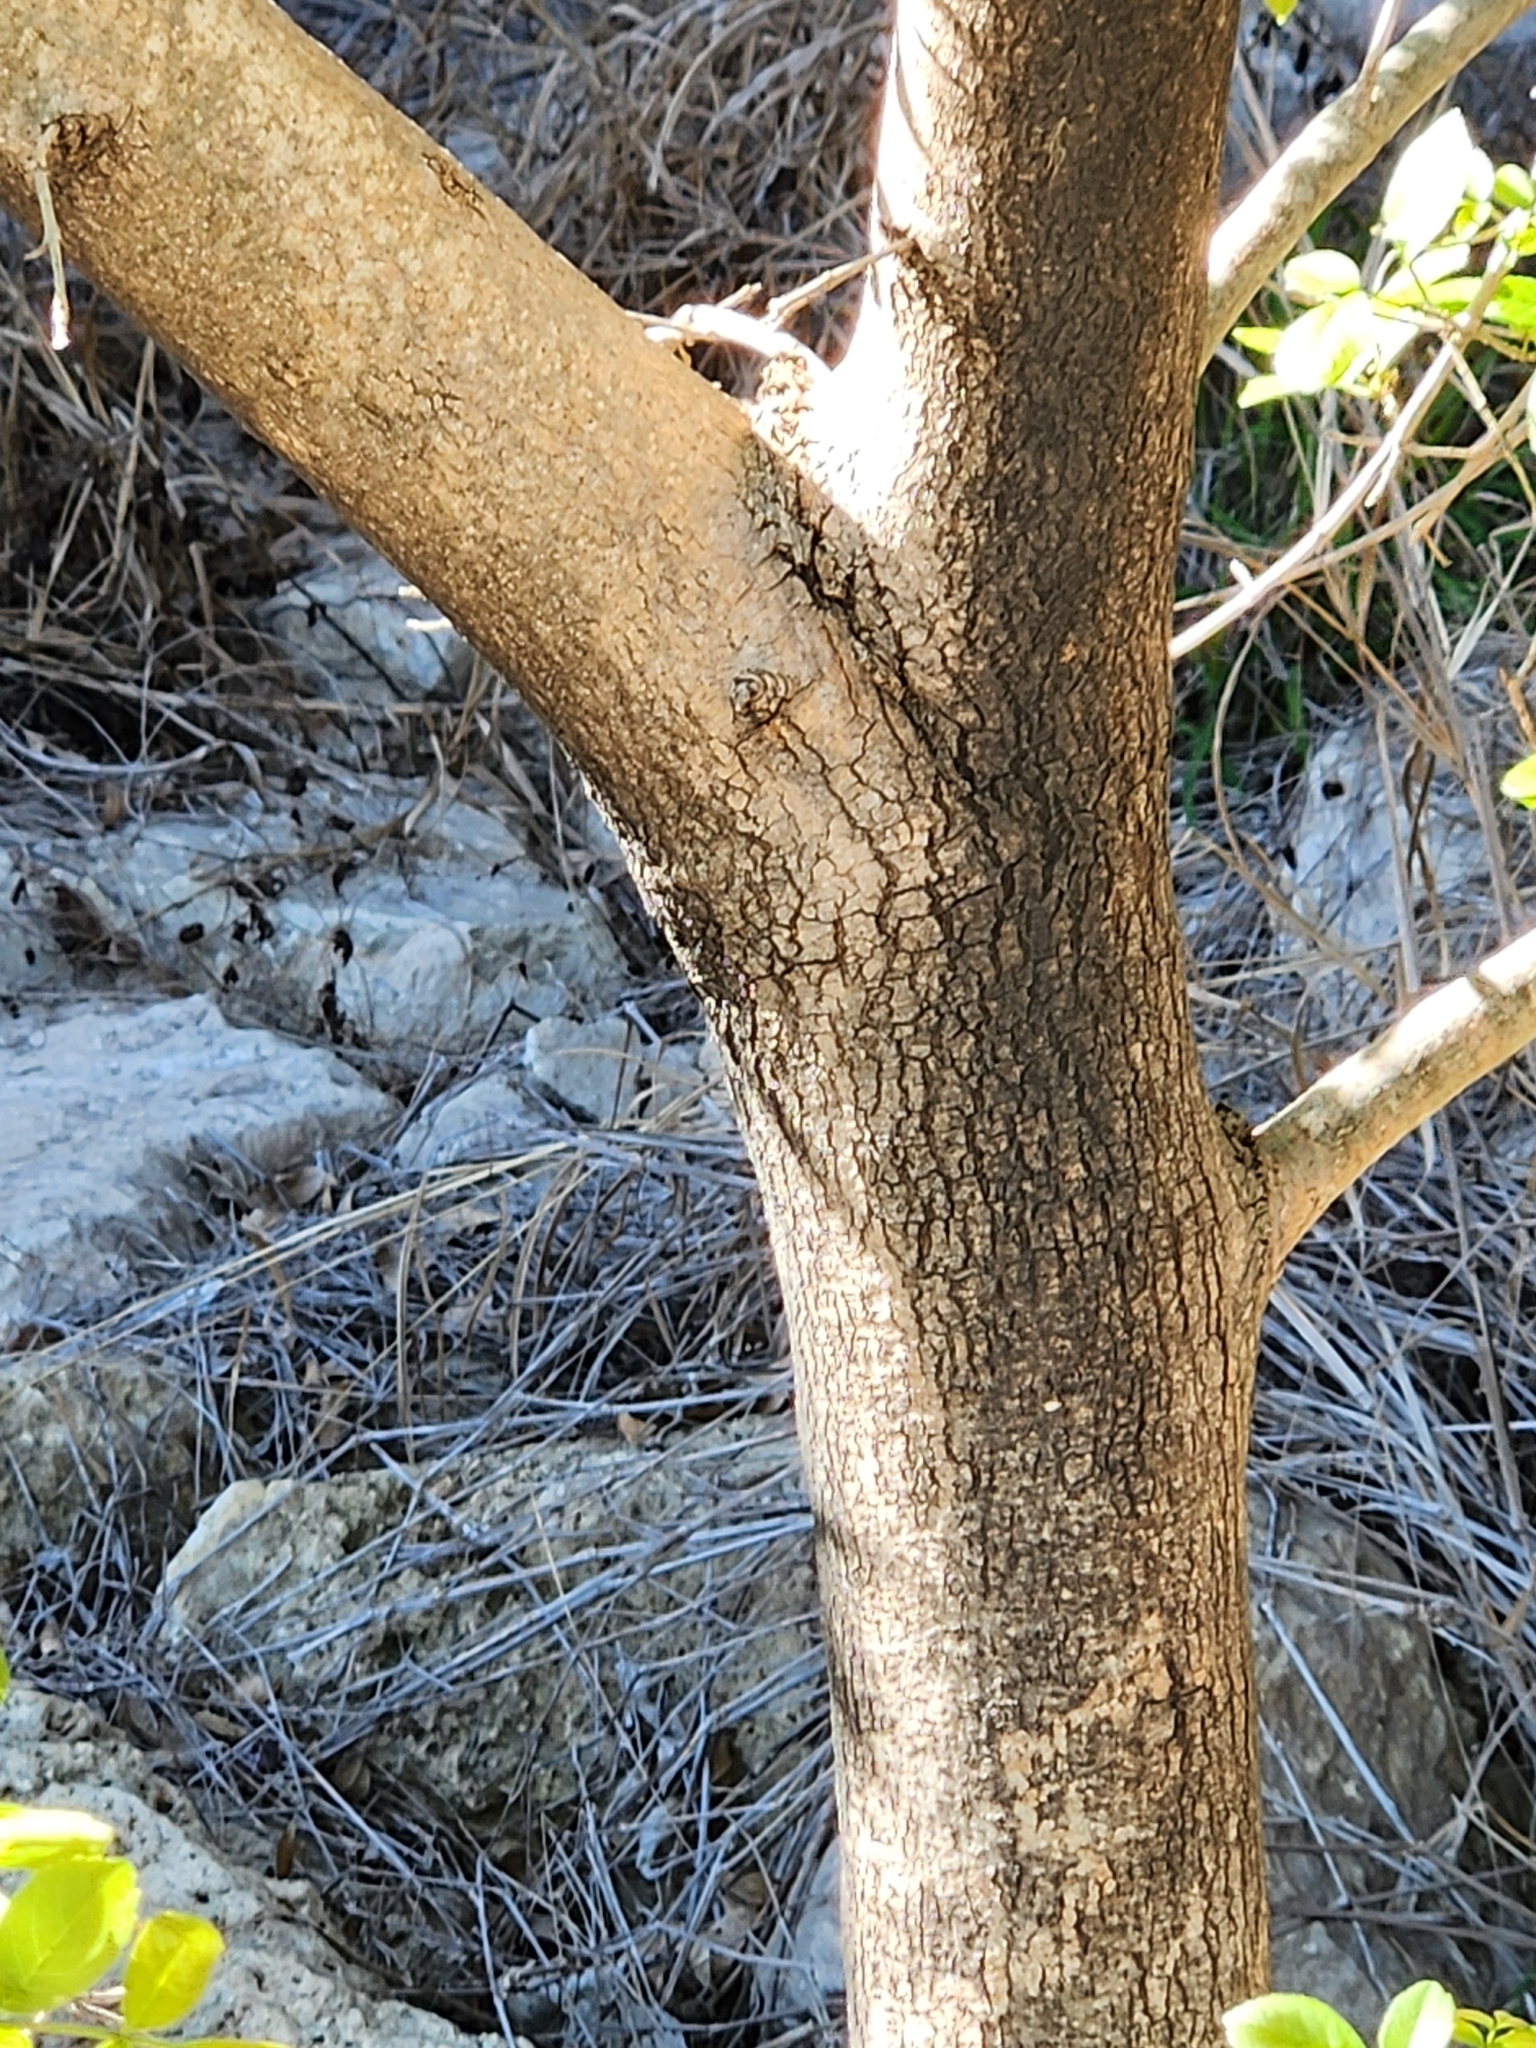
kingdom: Plantae
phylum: Tracheophyta
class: Magnoliopsida
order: Lamiales
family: Oleaceae
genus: Fraxinus
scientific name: Fraxinus berlandieriana
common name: Berlandier ash
